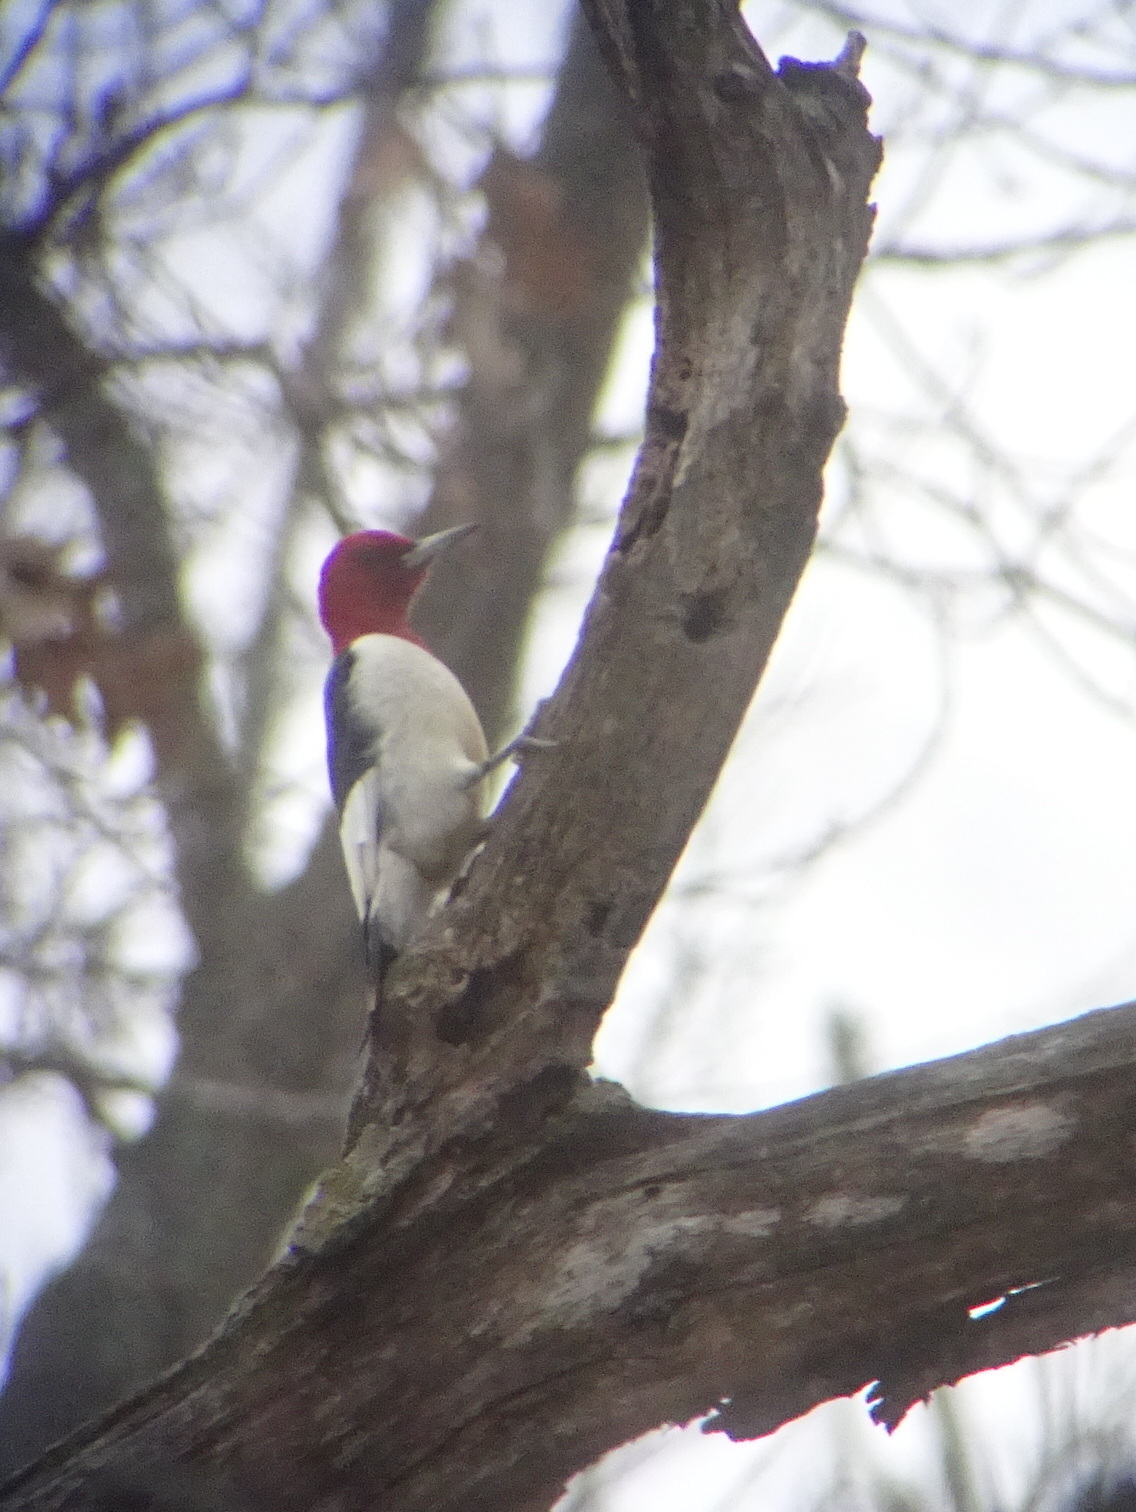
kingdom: Animalia
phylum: Chordata
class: Aves
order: Piciformes
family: Picidae
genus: Melanerpes
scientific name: Melanerpes erythrocephalus
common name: Red-headed woodpecker
